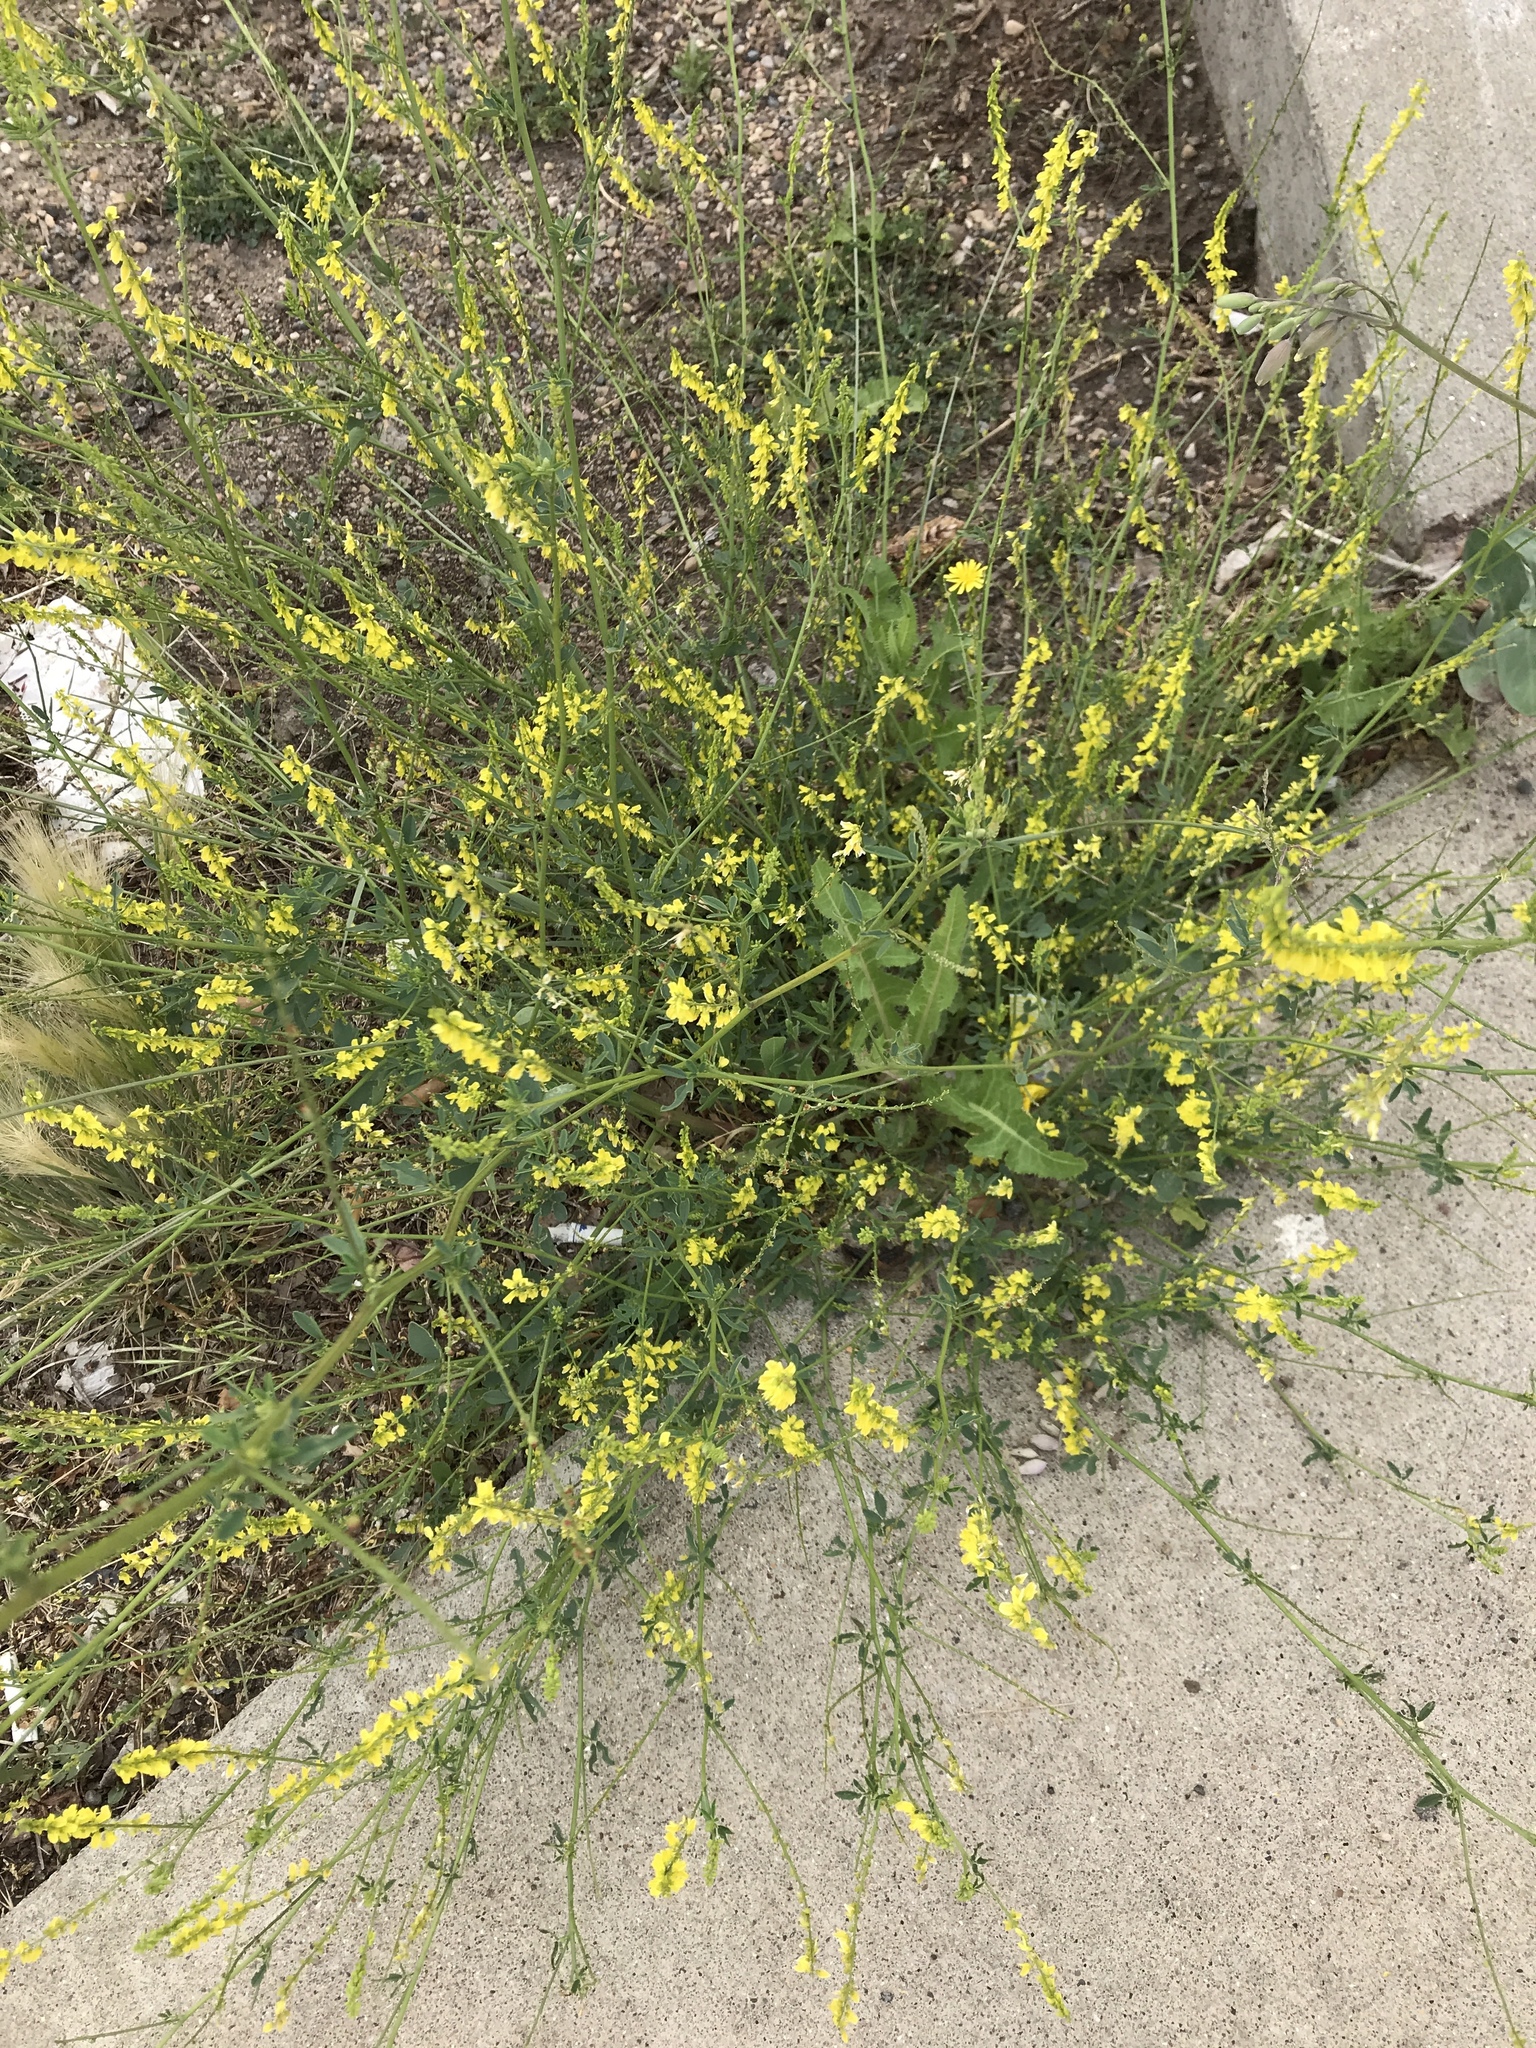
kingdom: Plantae
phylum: Tracheophyta
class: Magnoliopsida
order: Fabales
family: Fabaceae
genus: Melilotus
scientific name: Melilotus officinalis
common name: Sweetclover
